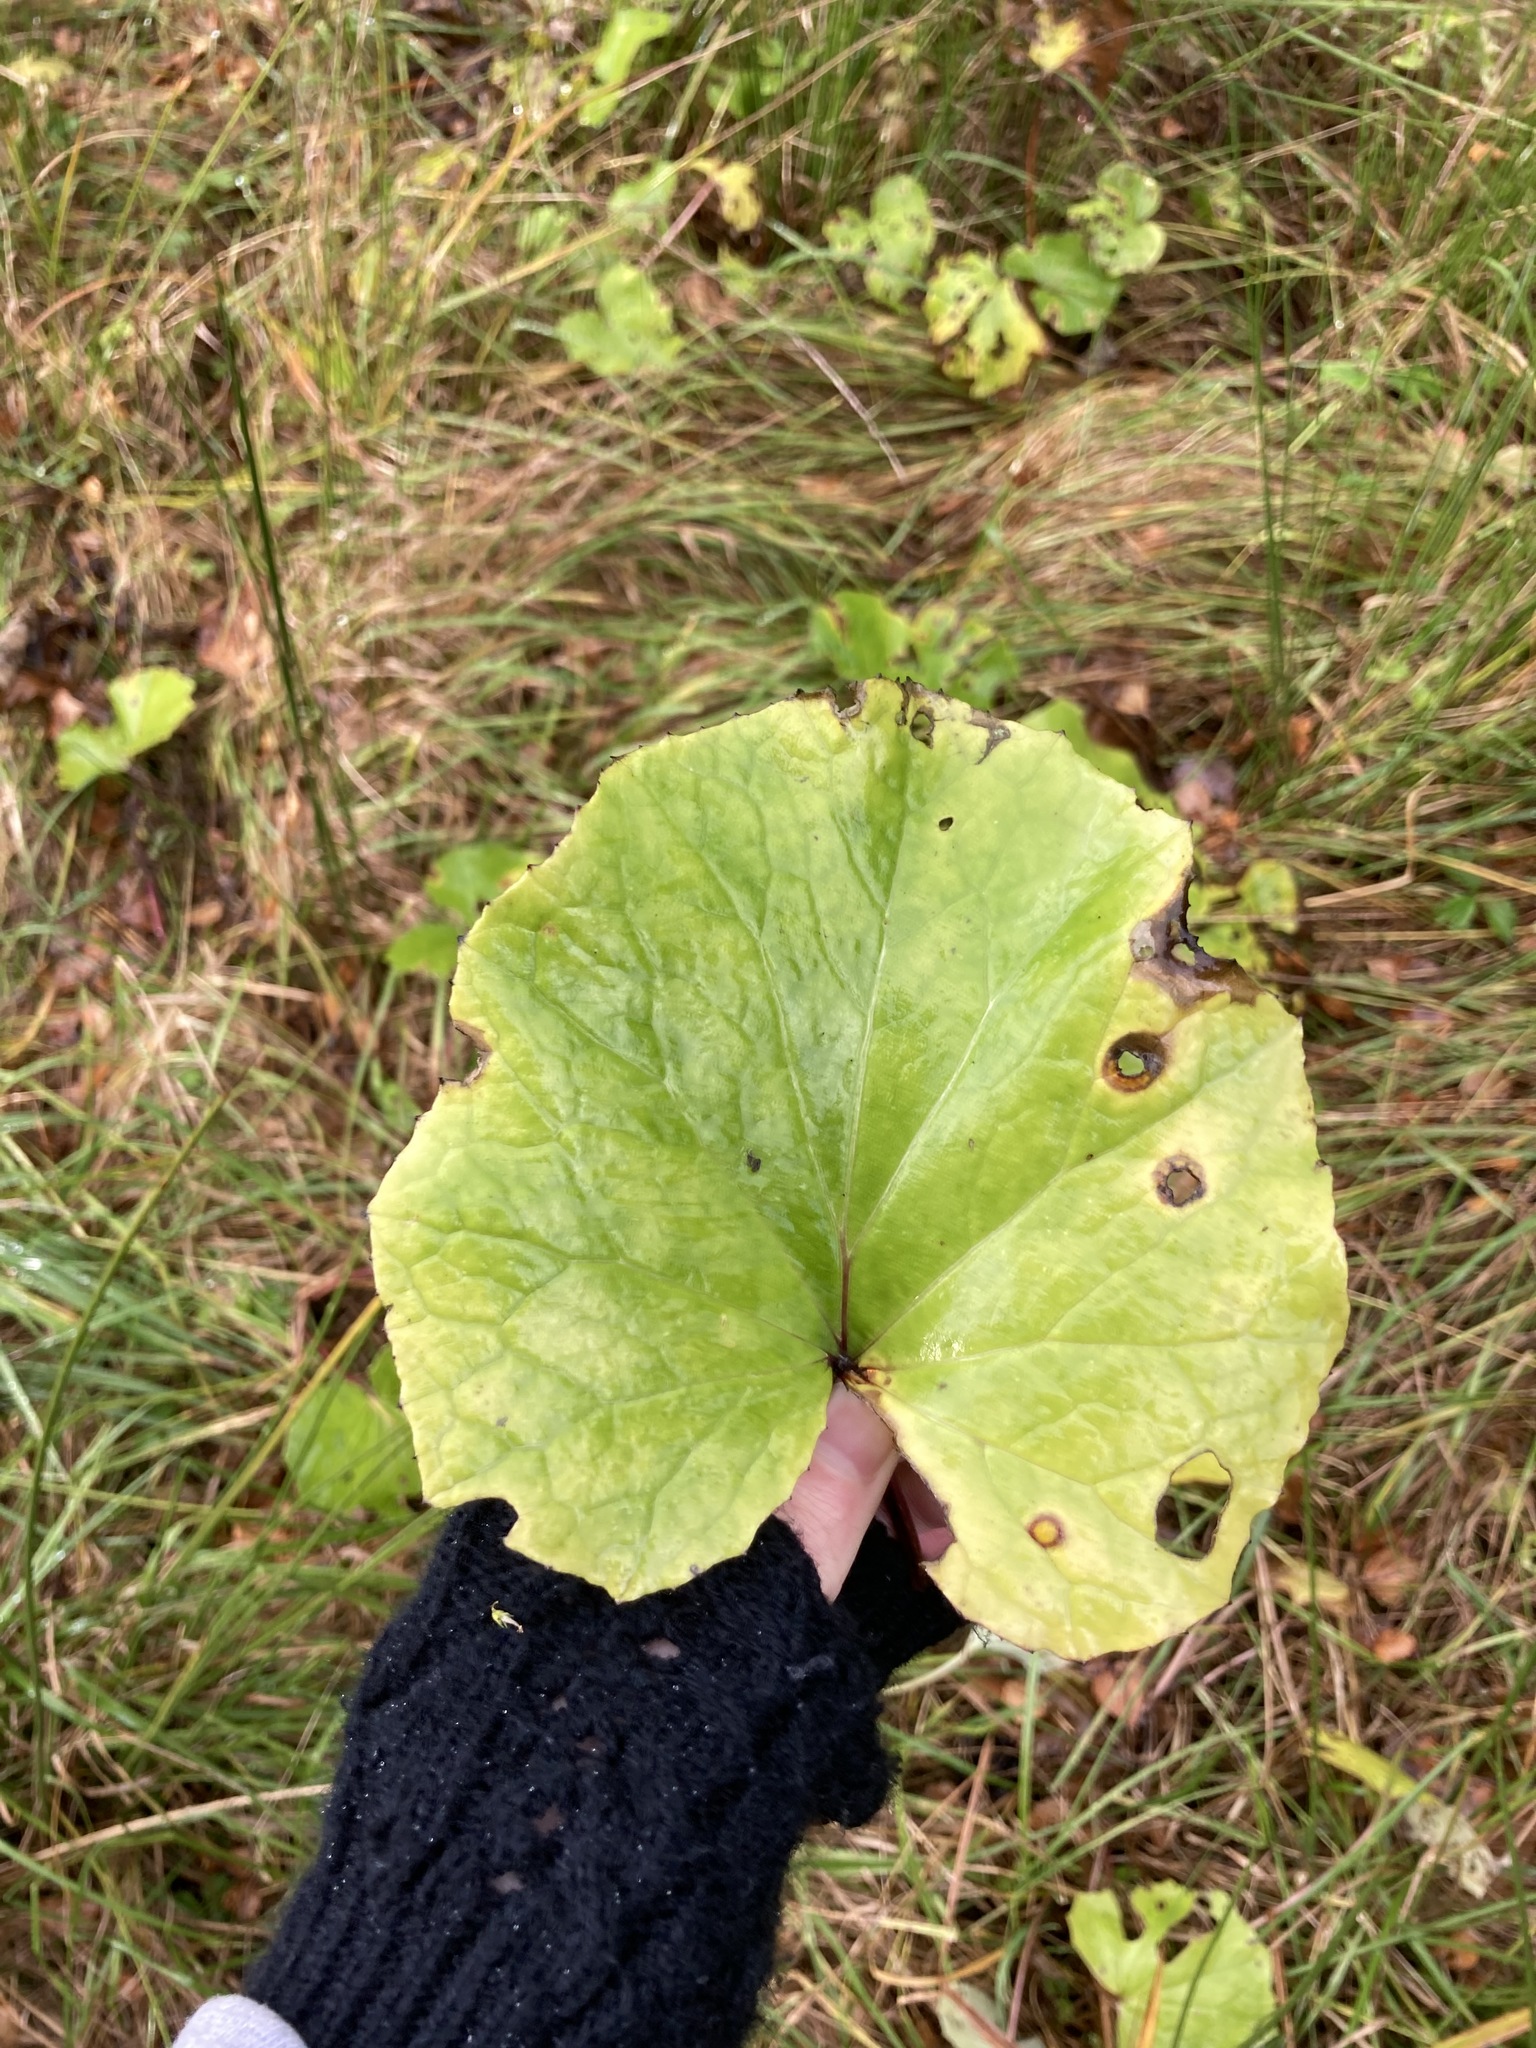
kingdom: Plantae
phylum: Tracheophyta
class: Magnoliopsida
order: Asterales
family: Asteraceae
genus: Tussilago
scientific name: Tussilago farfara
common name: Coltsfoot
